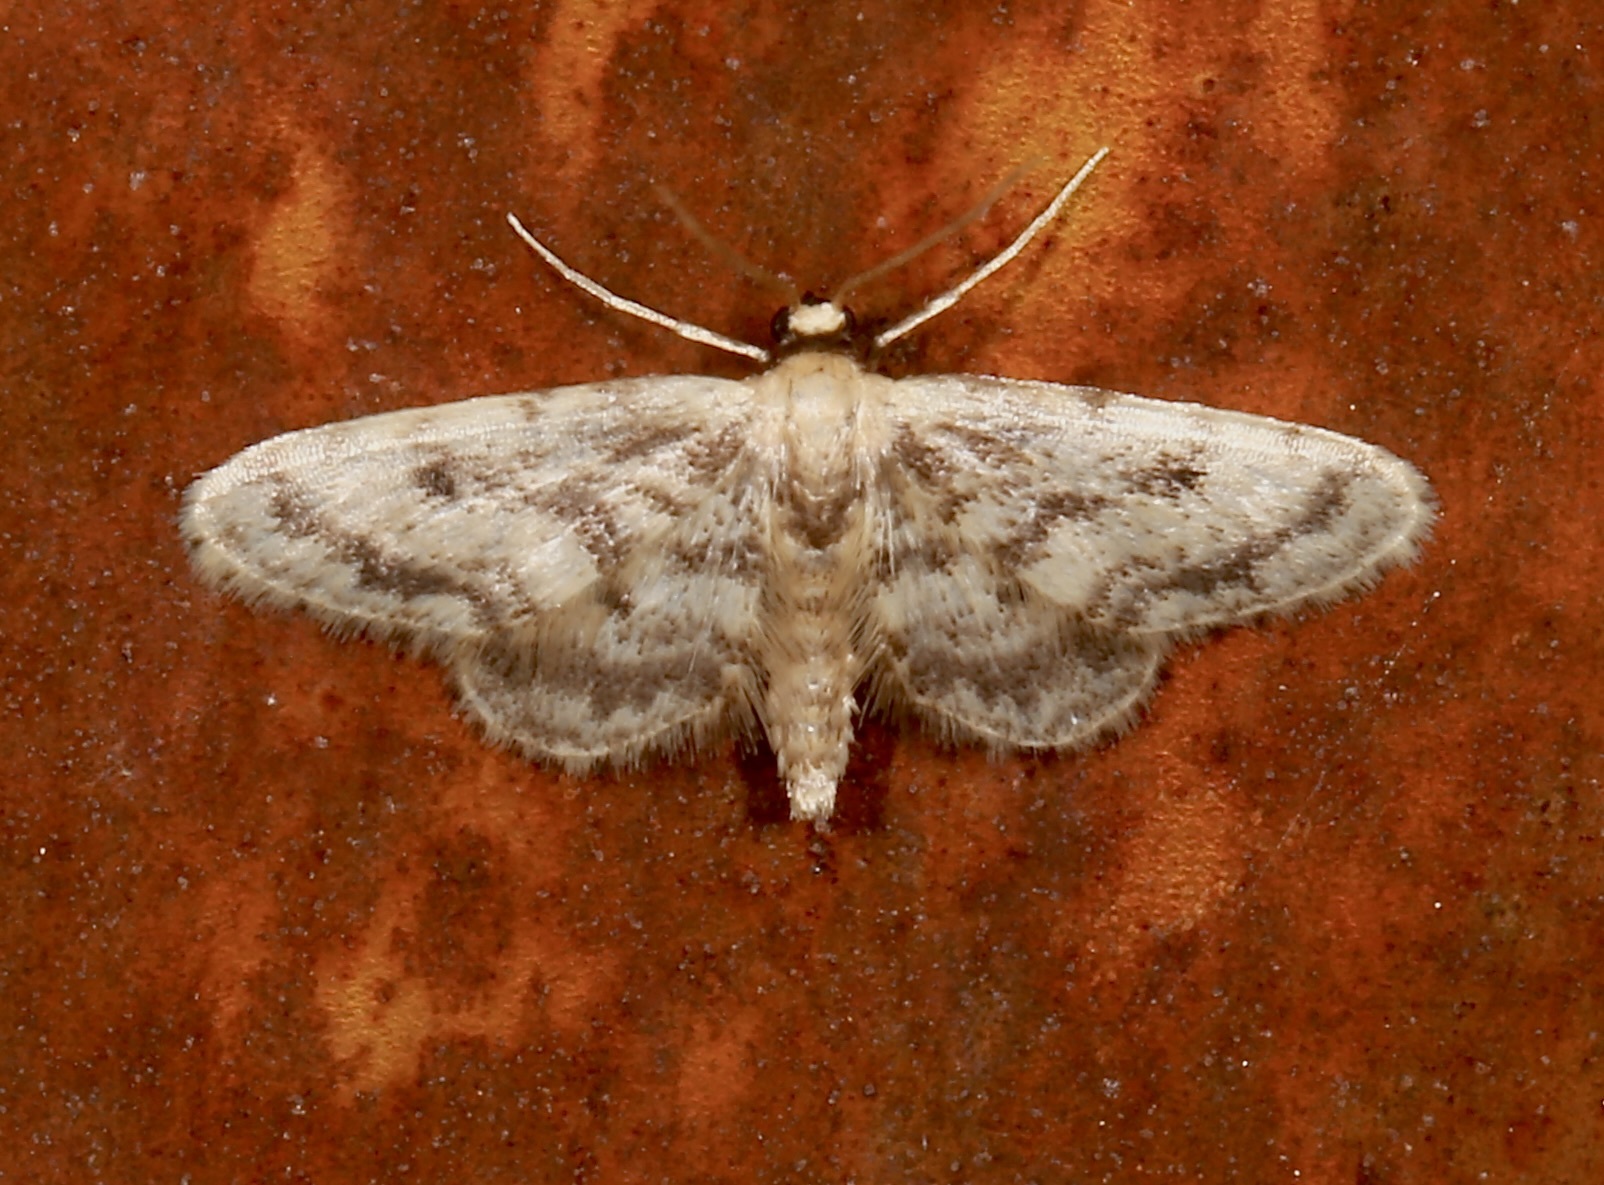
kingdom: Animalia
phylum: Arthropoda
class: Insecta
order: Lepidoptera
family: Geometridae
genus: Idaea
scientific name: Idaea bonifata
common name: Fortunate wave
